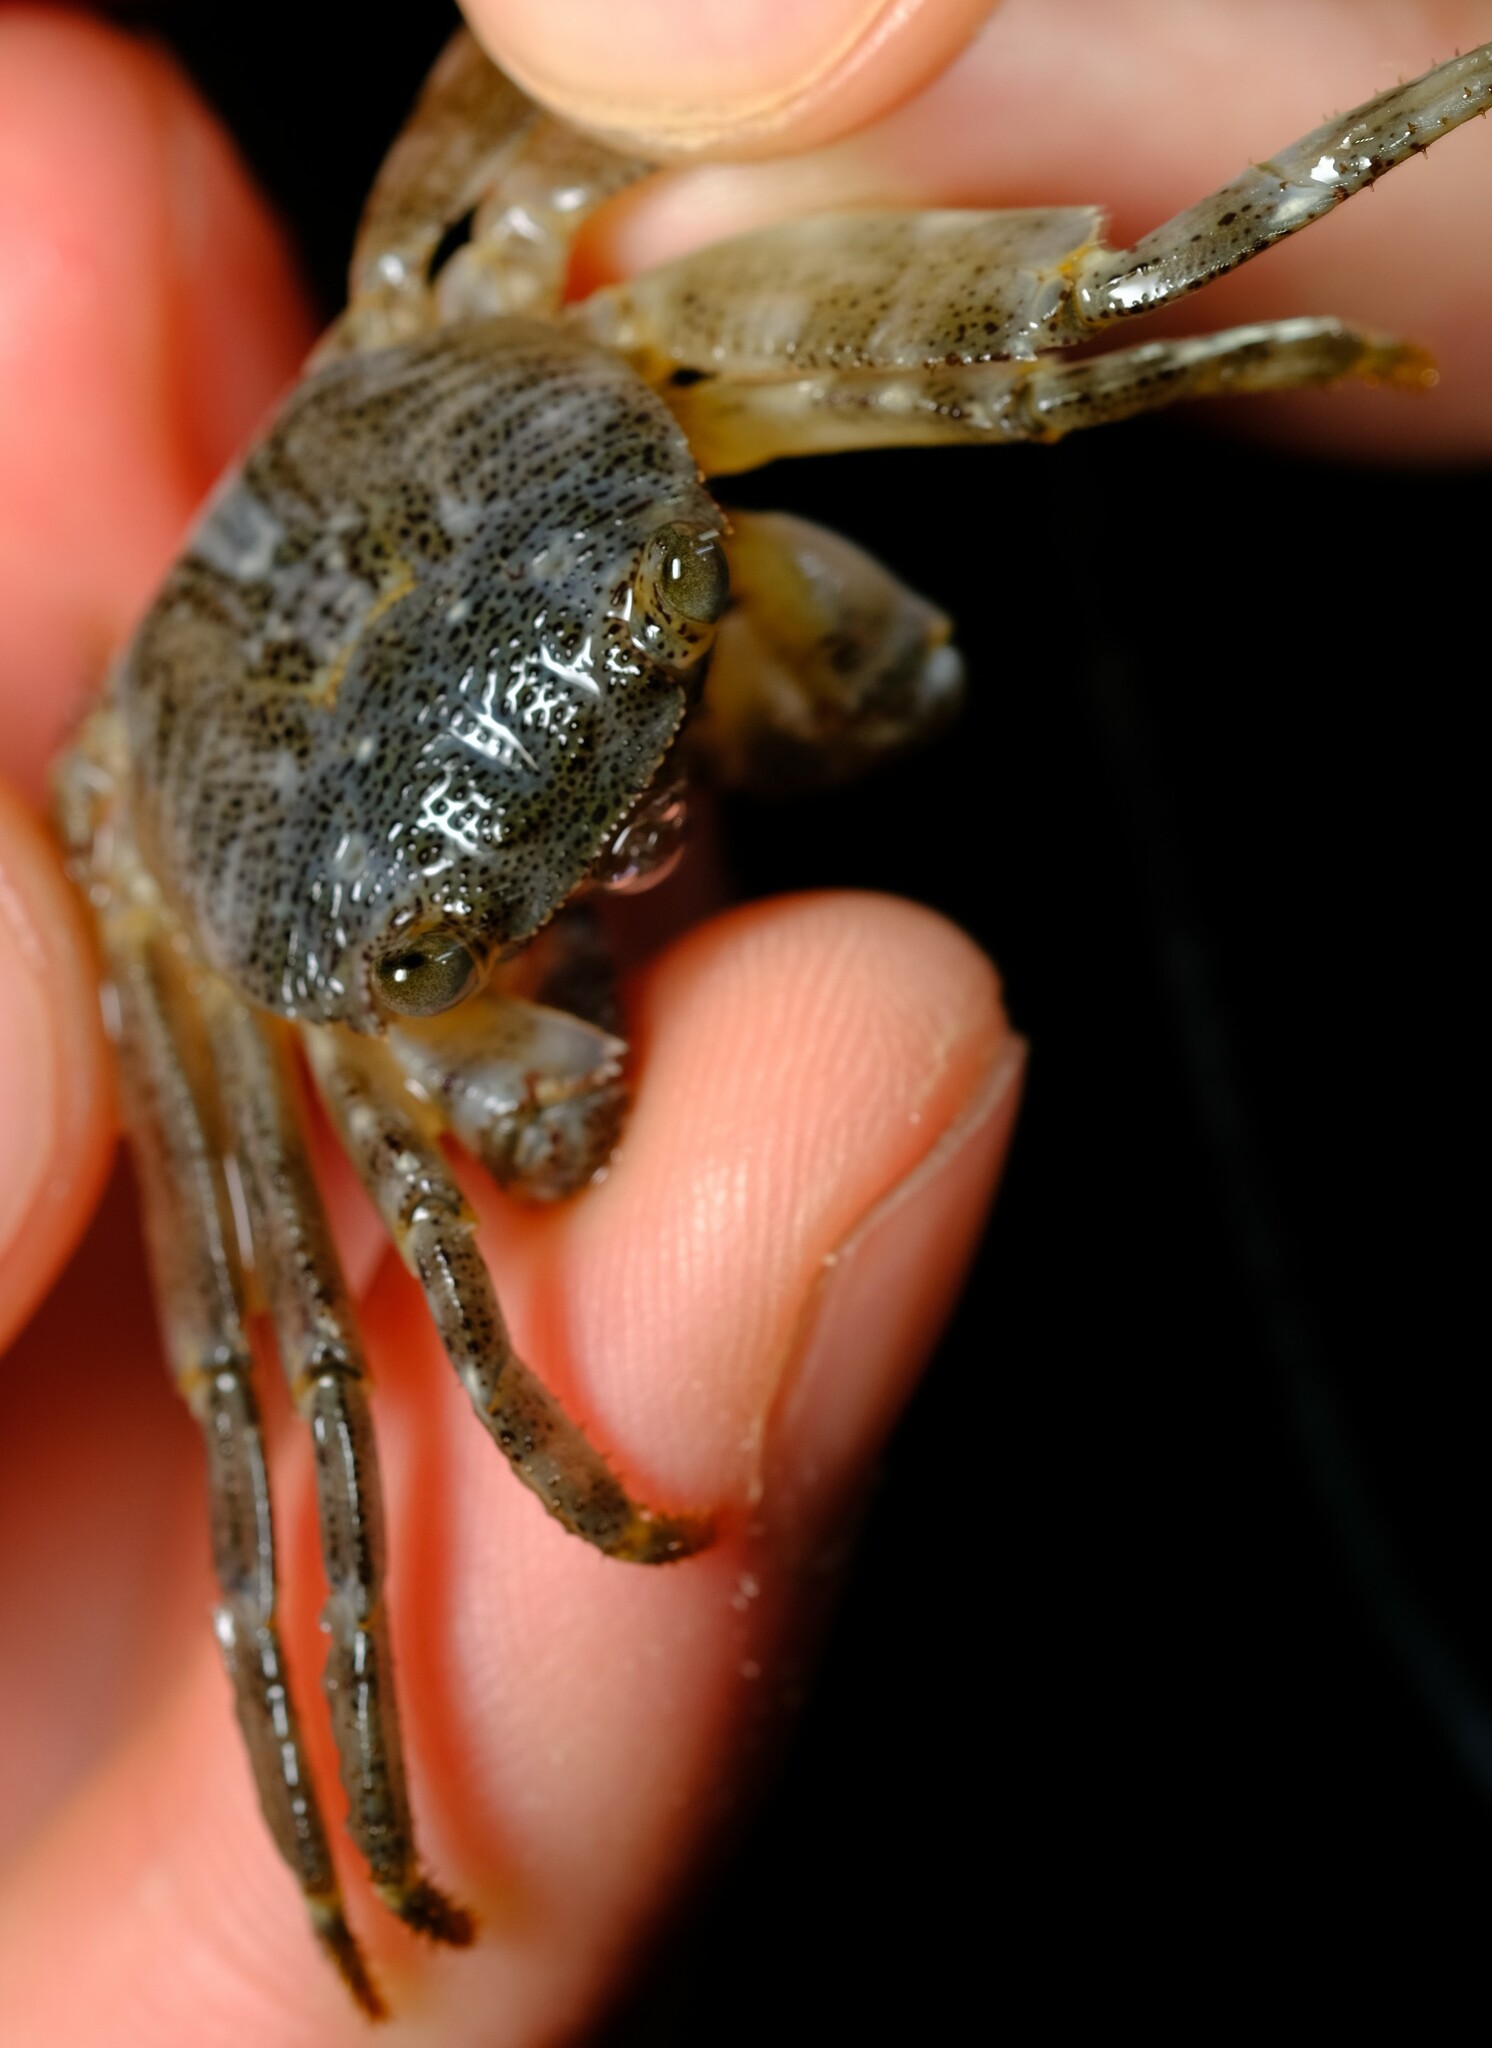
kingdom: Animalia
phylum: Arthropoda
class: Malacostraca
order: Decapoda
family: Grapsidae
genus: Leptograpsus
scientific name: Leptograpsus variegatus
